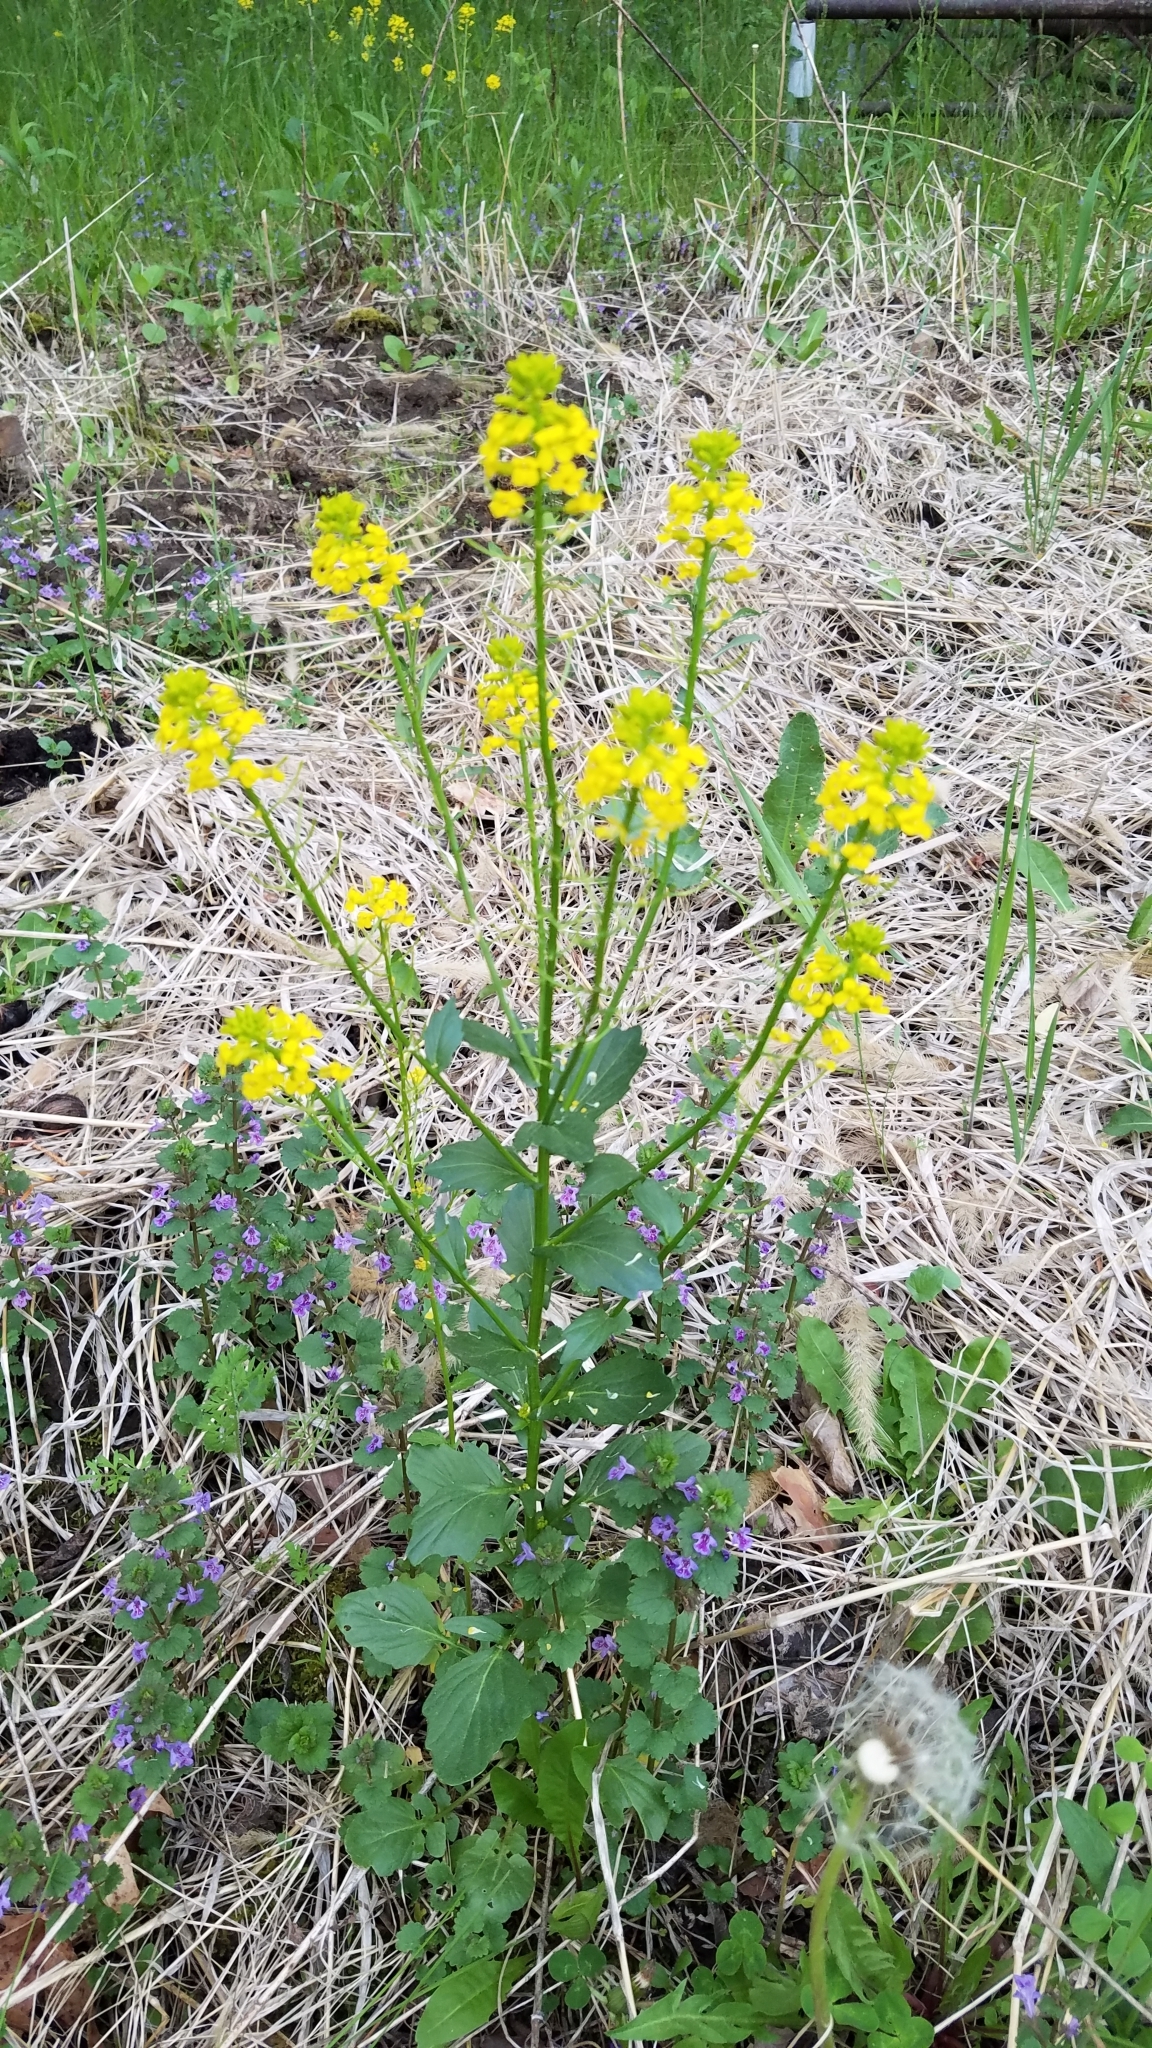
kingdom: Plantae
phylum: Tracheophyta
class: Magnoliopsida
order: Brassicales
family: Brassicaceae
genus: Barbarea
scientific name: Barbarea vulgaris
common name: Cressy-greens
